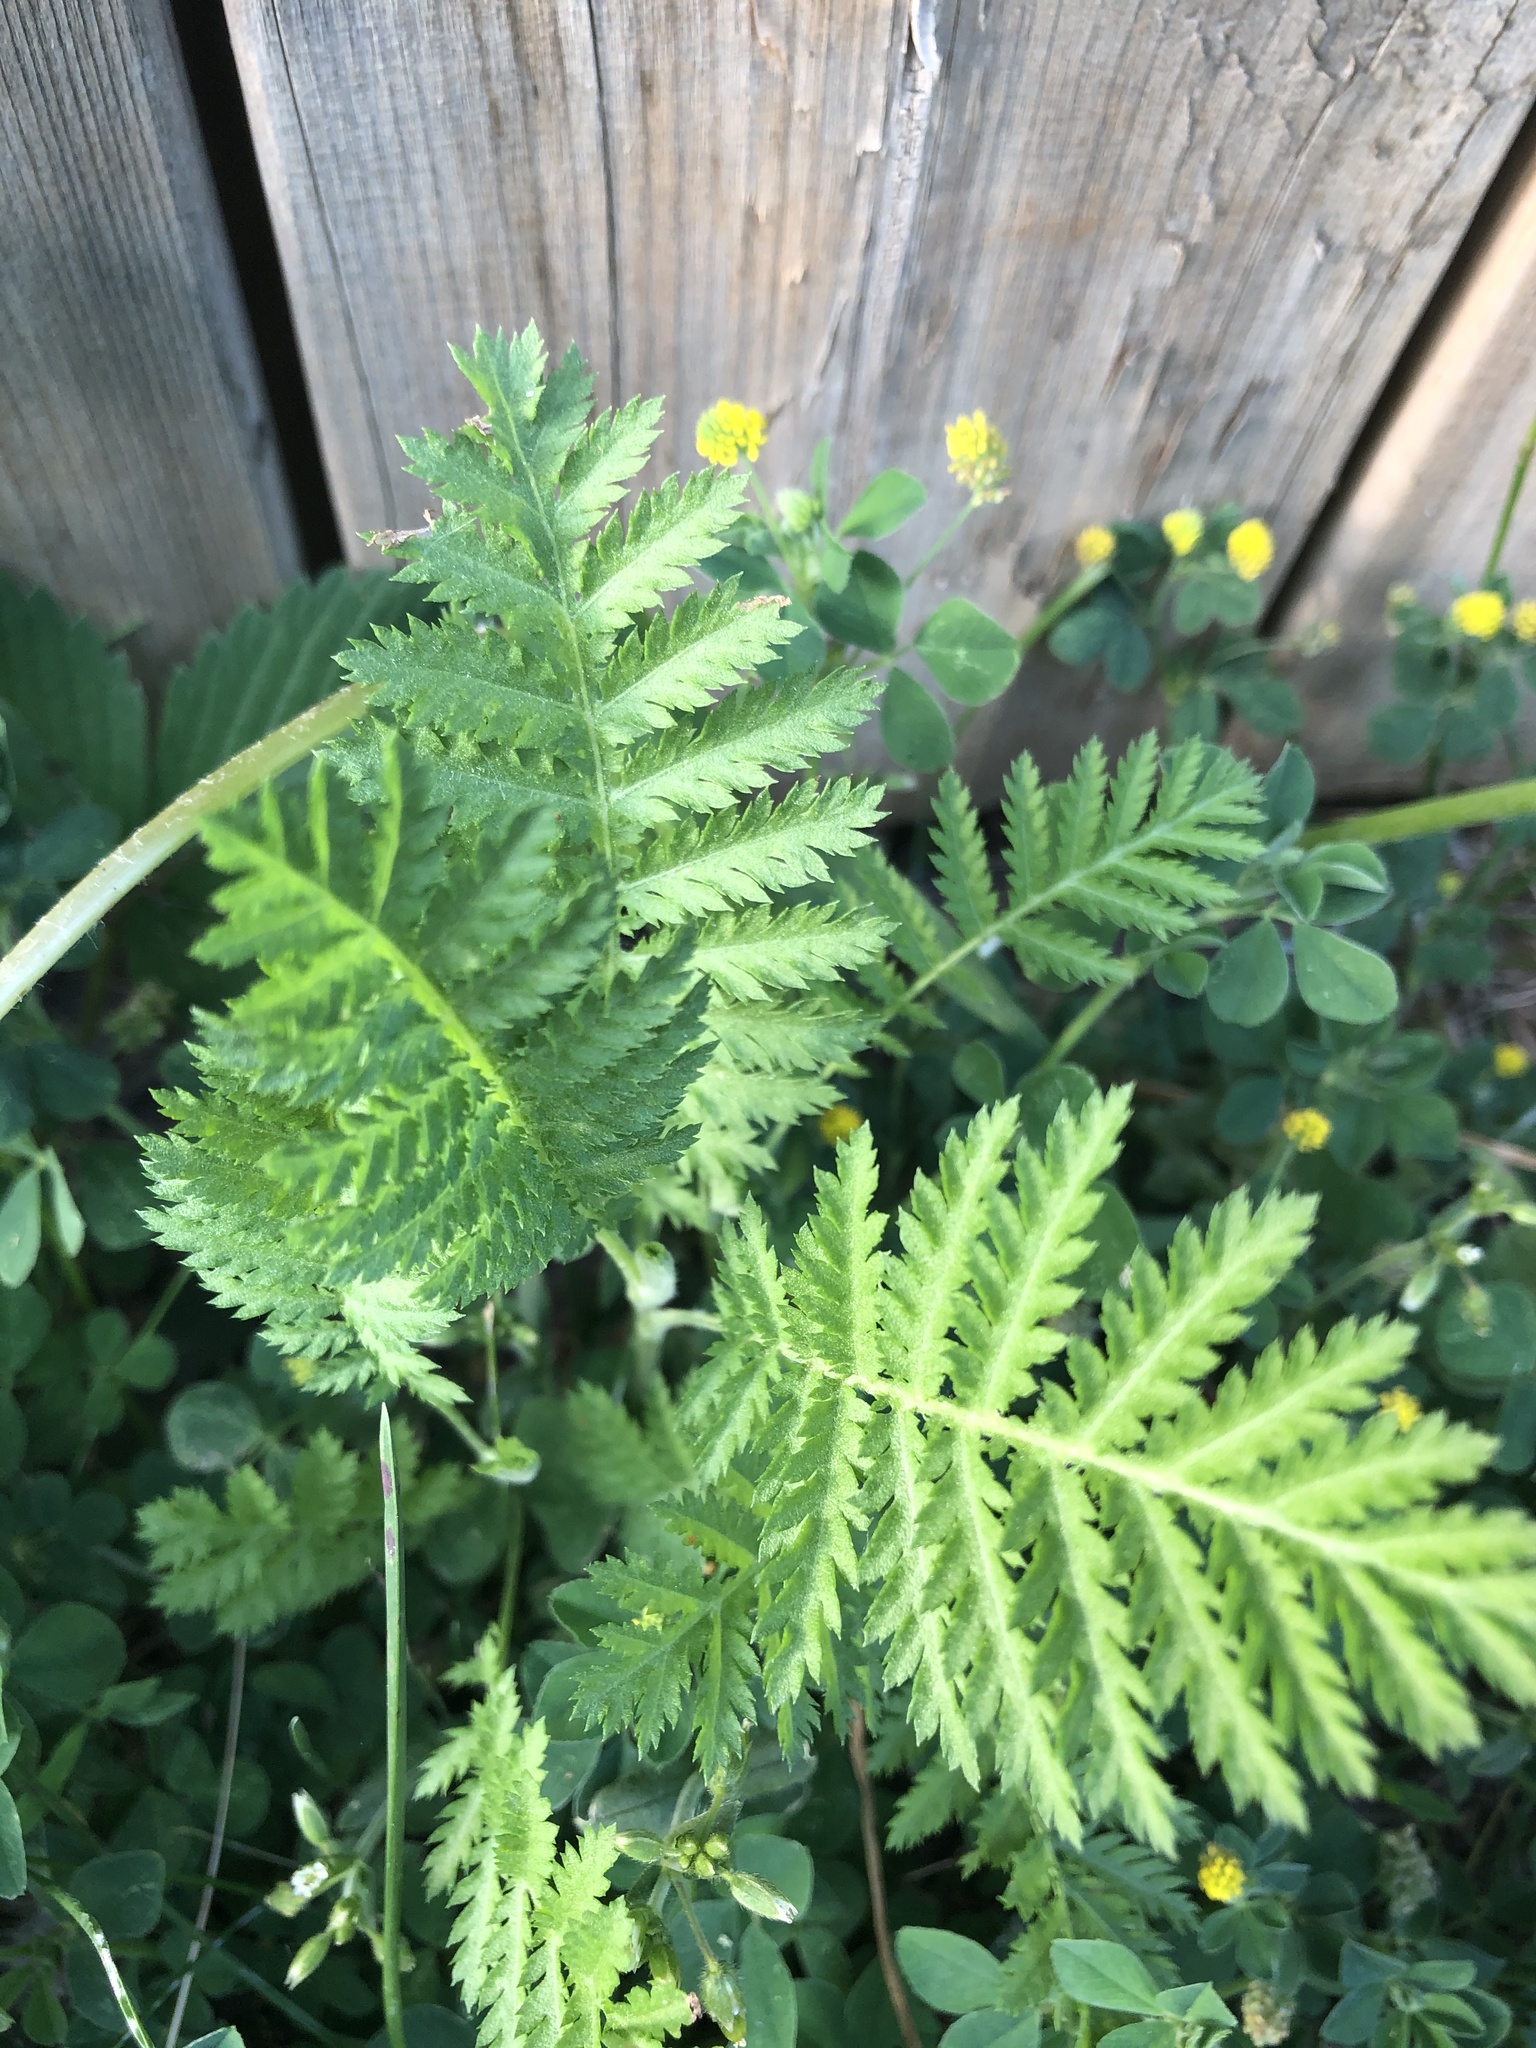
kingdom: Plantae
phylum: Tracheophyta
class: Magnoliopsida
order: Asterales
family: Asteraceae
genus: Tanacetum
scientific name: Tanacetum vulgare
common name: Common tansy
